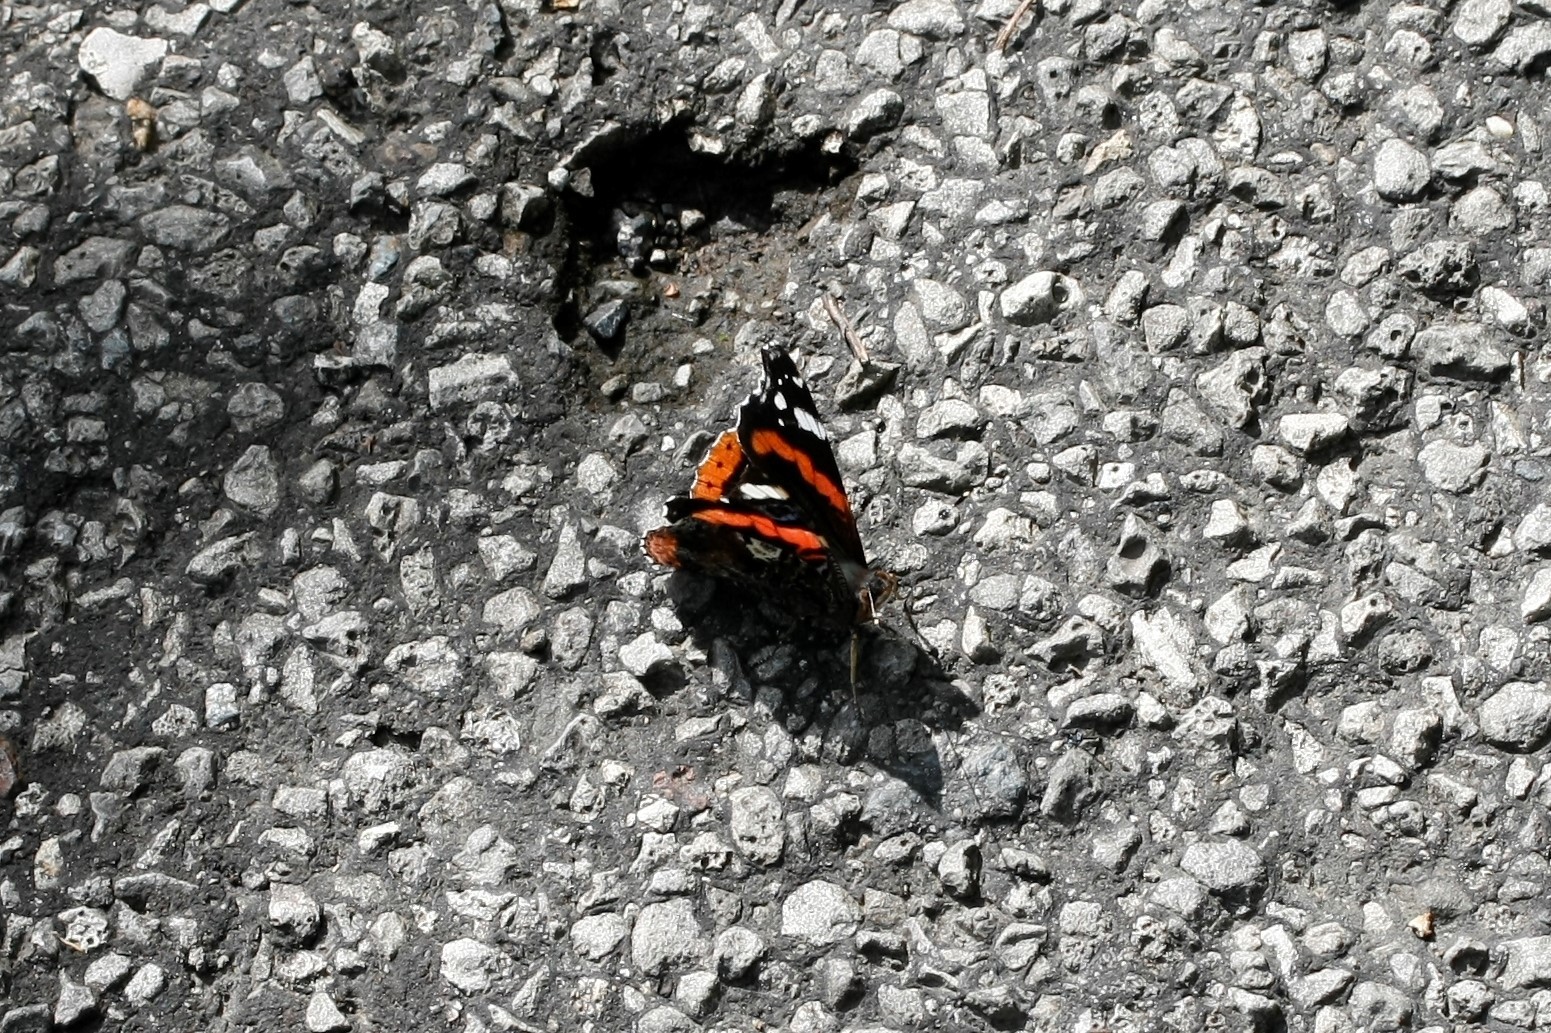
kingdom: Animalia
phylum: Arthropoda
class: Insecta
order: Lepidoptera
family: Nymphalidae
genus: Vanessa
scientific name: Vanessa atalanta
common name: Red admiral
